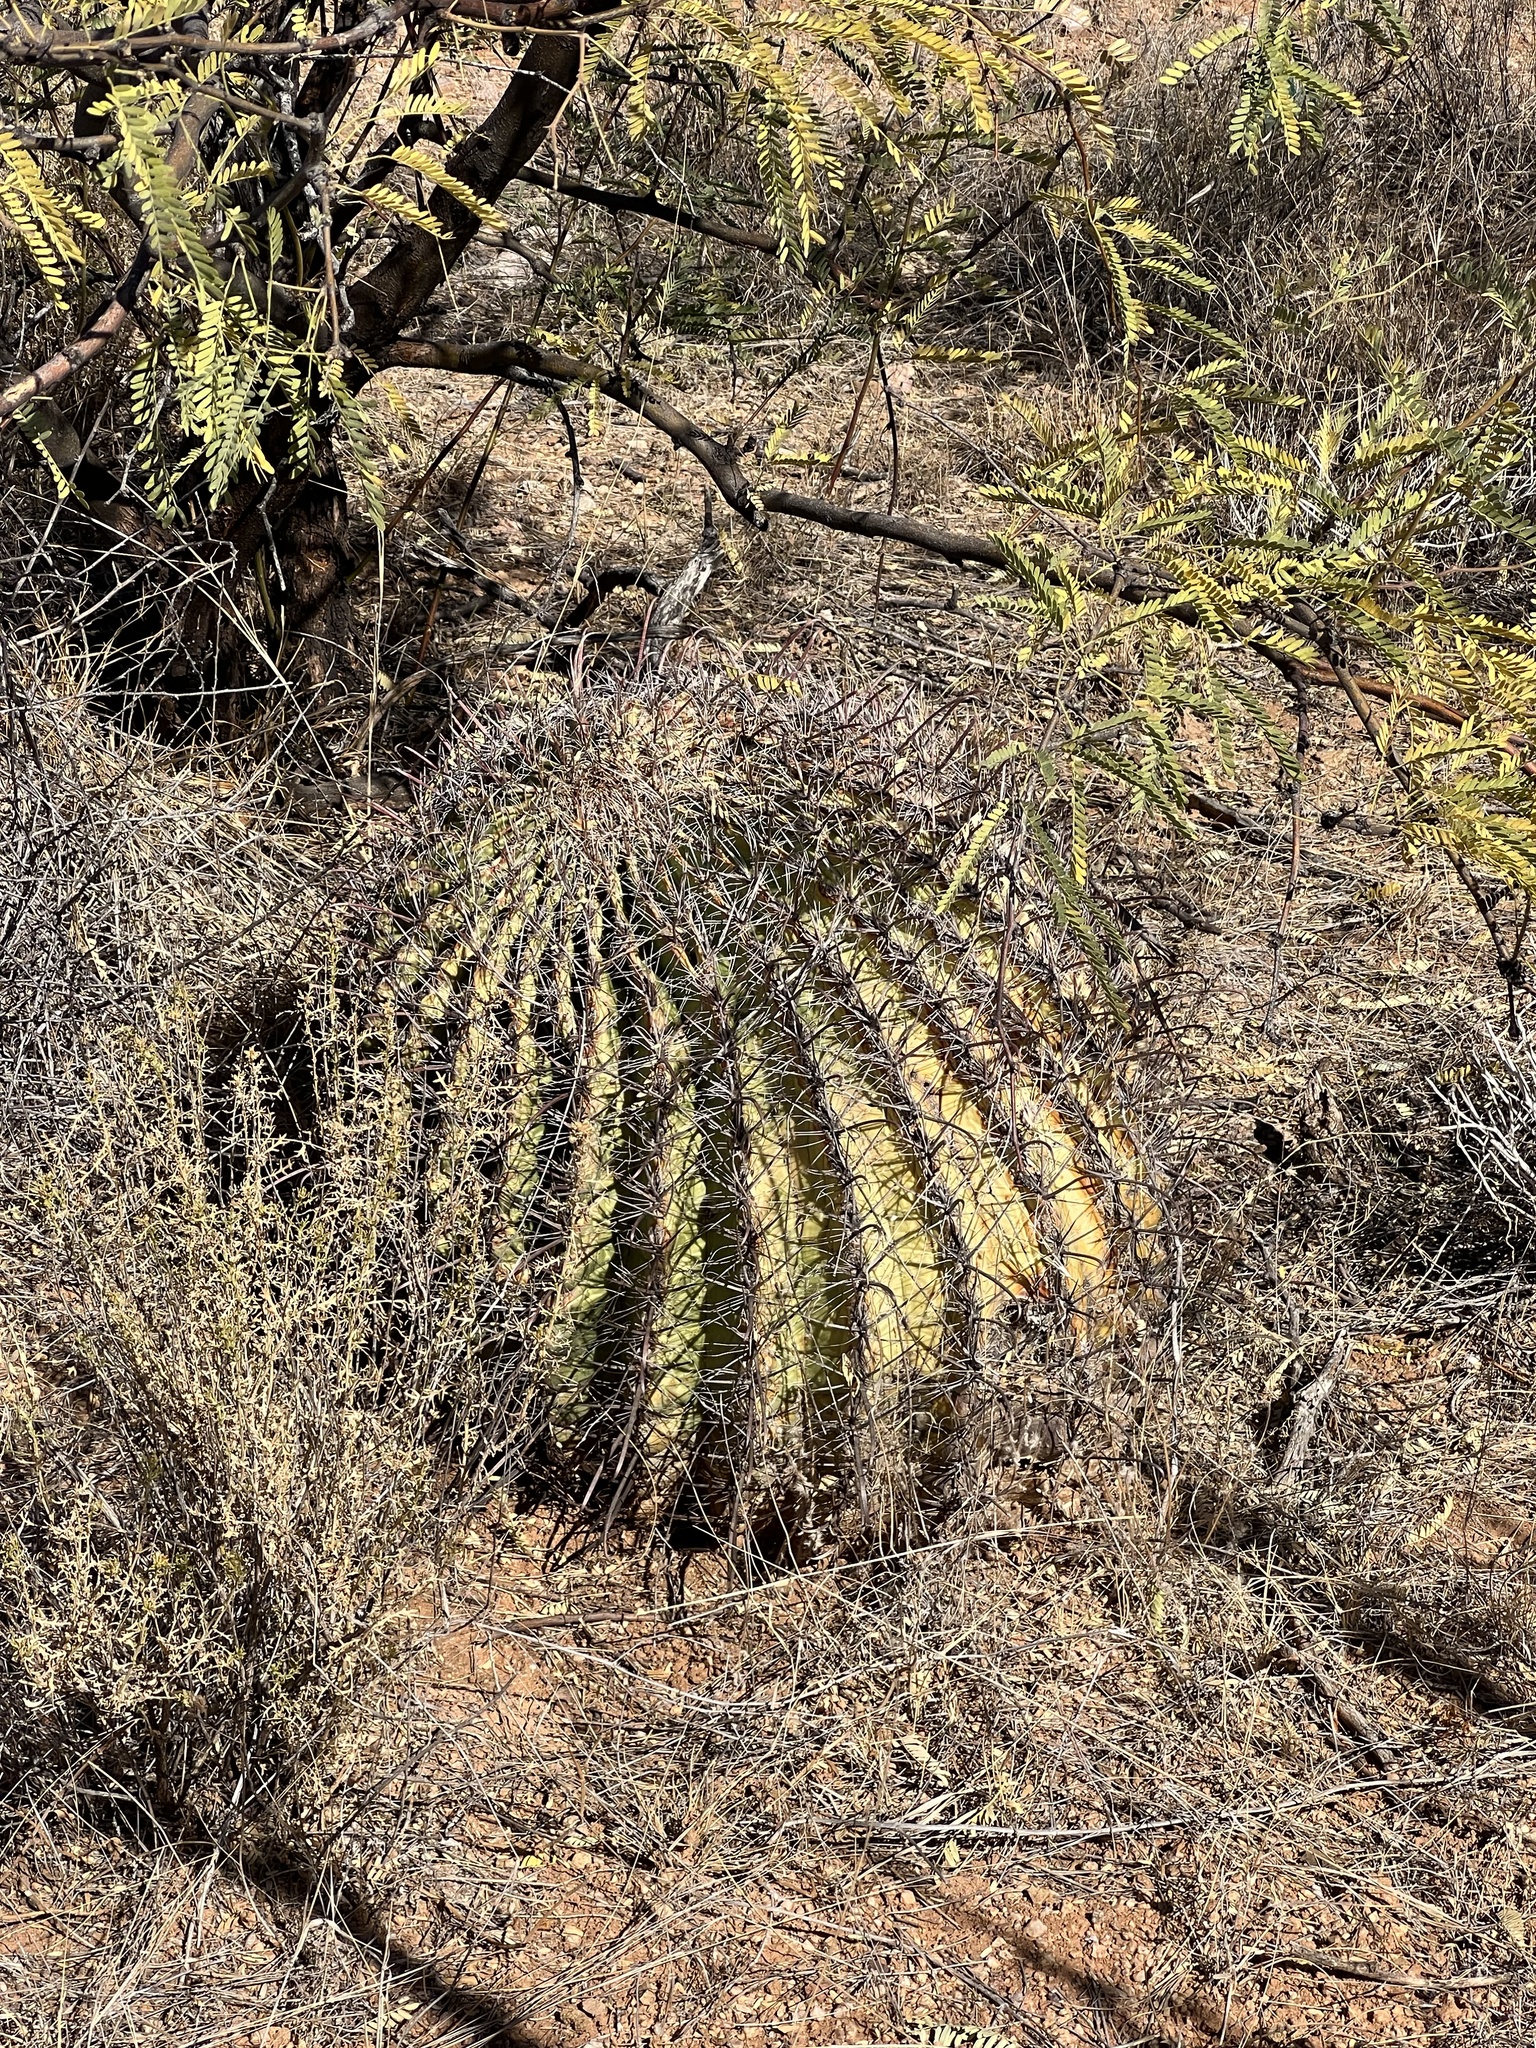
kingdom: Plantae
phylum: Tracheophyta
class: Magnoliopsida
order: Caryophyllales
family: Cactaceae
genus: Ferocactus
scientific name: Ferocactus wislizeni
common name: Candy barrel cactus
